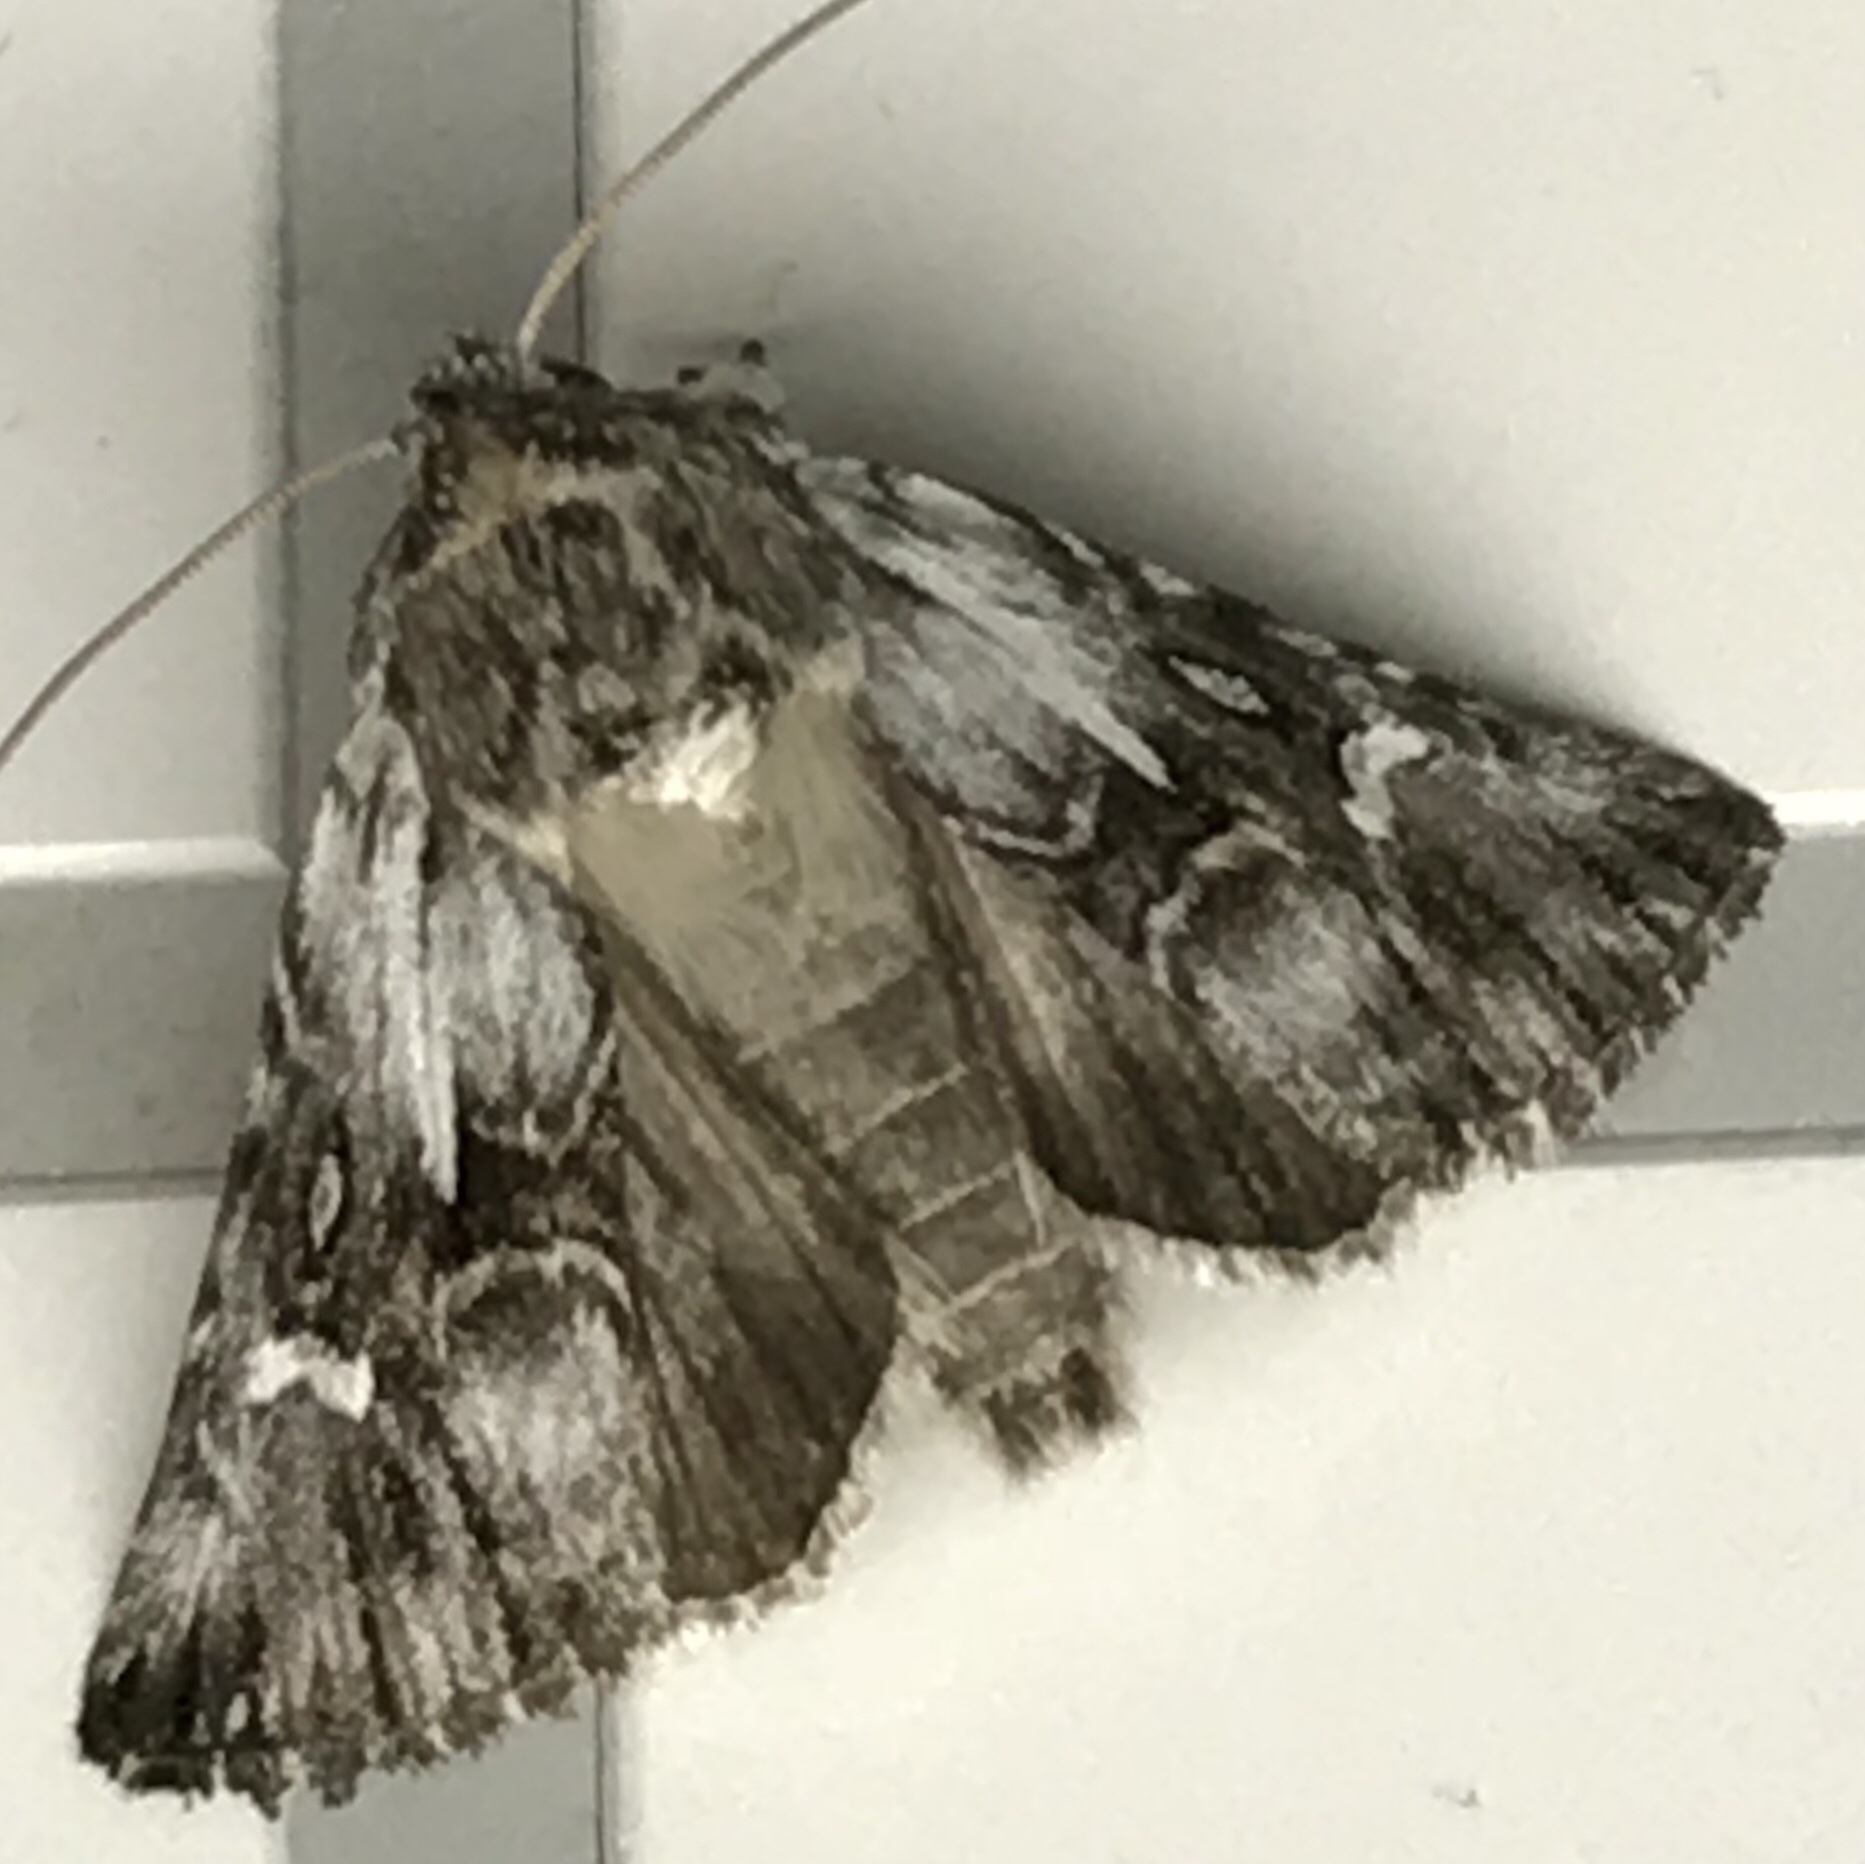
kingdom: Animalia
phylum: Arthropoda
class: Insecta
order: Lepidoptera
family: Noctuidae
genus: Calophasia
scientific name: Calophasia lunula
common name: Toadflax brocade
